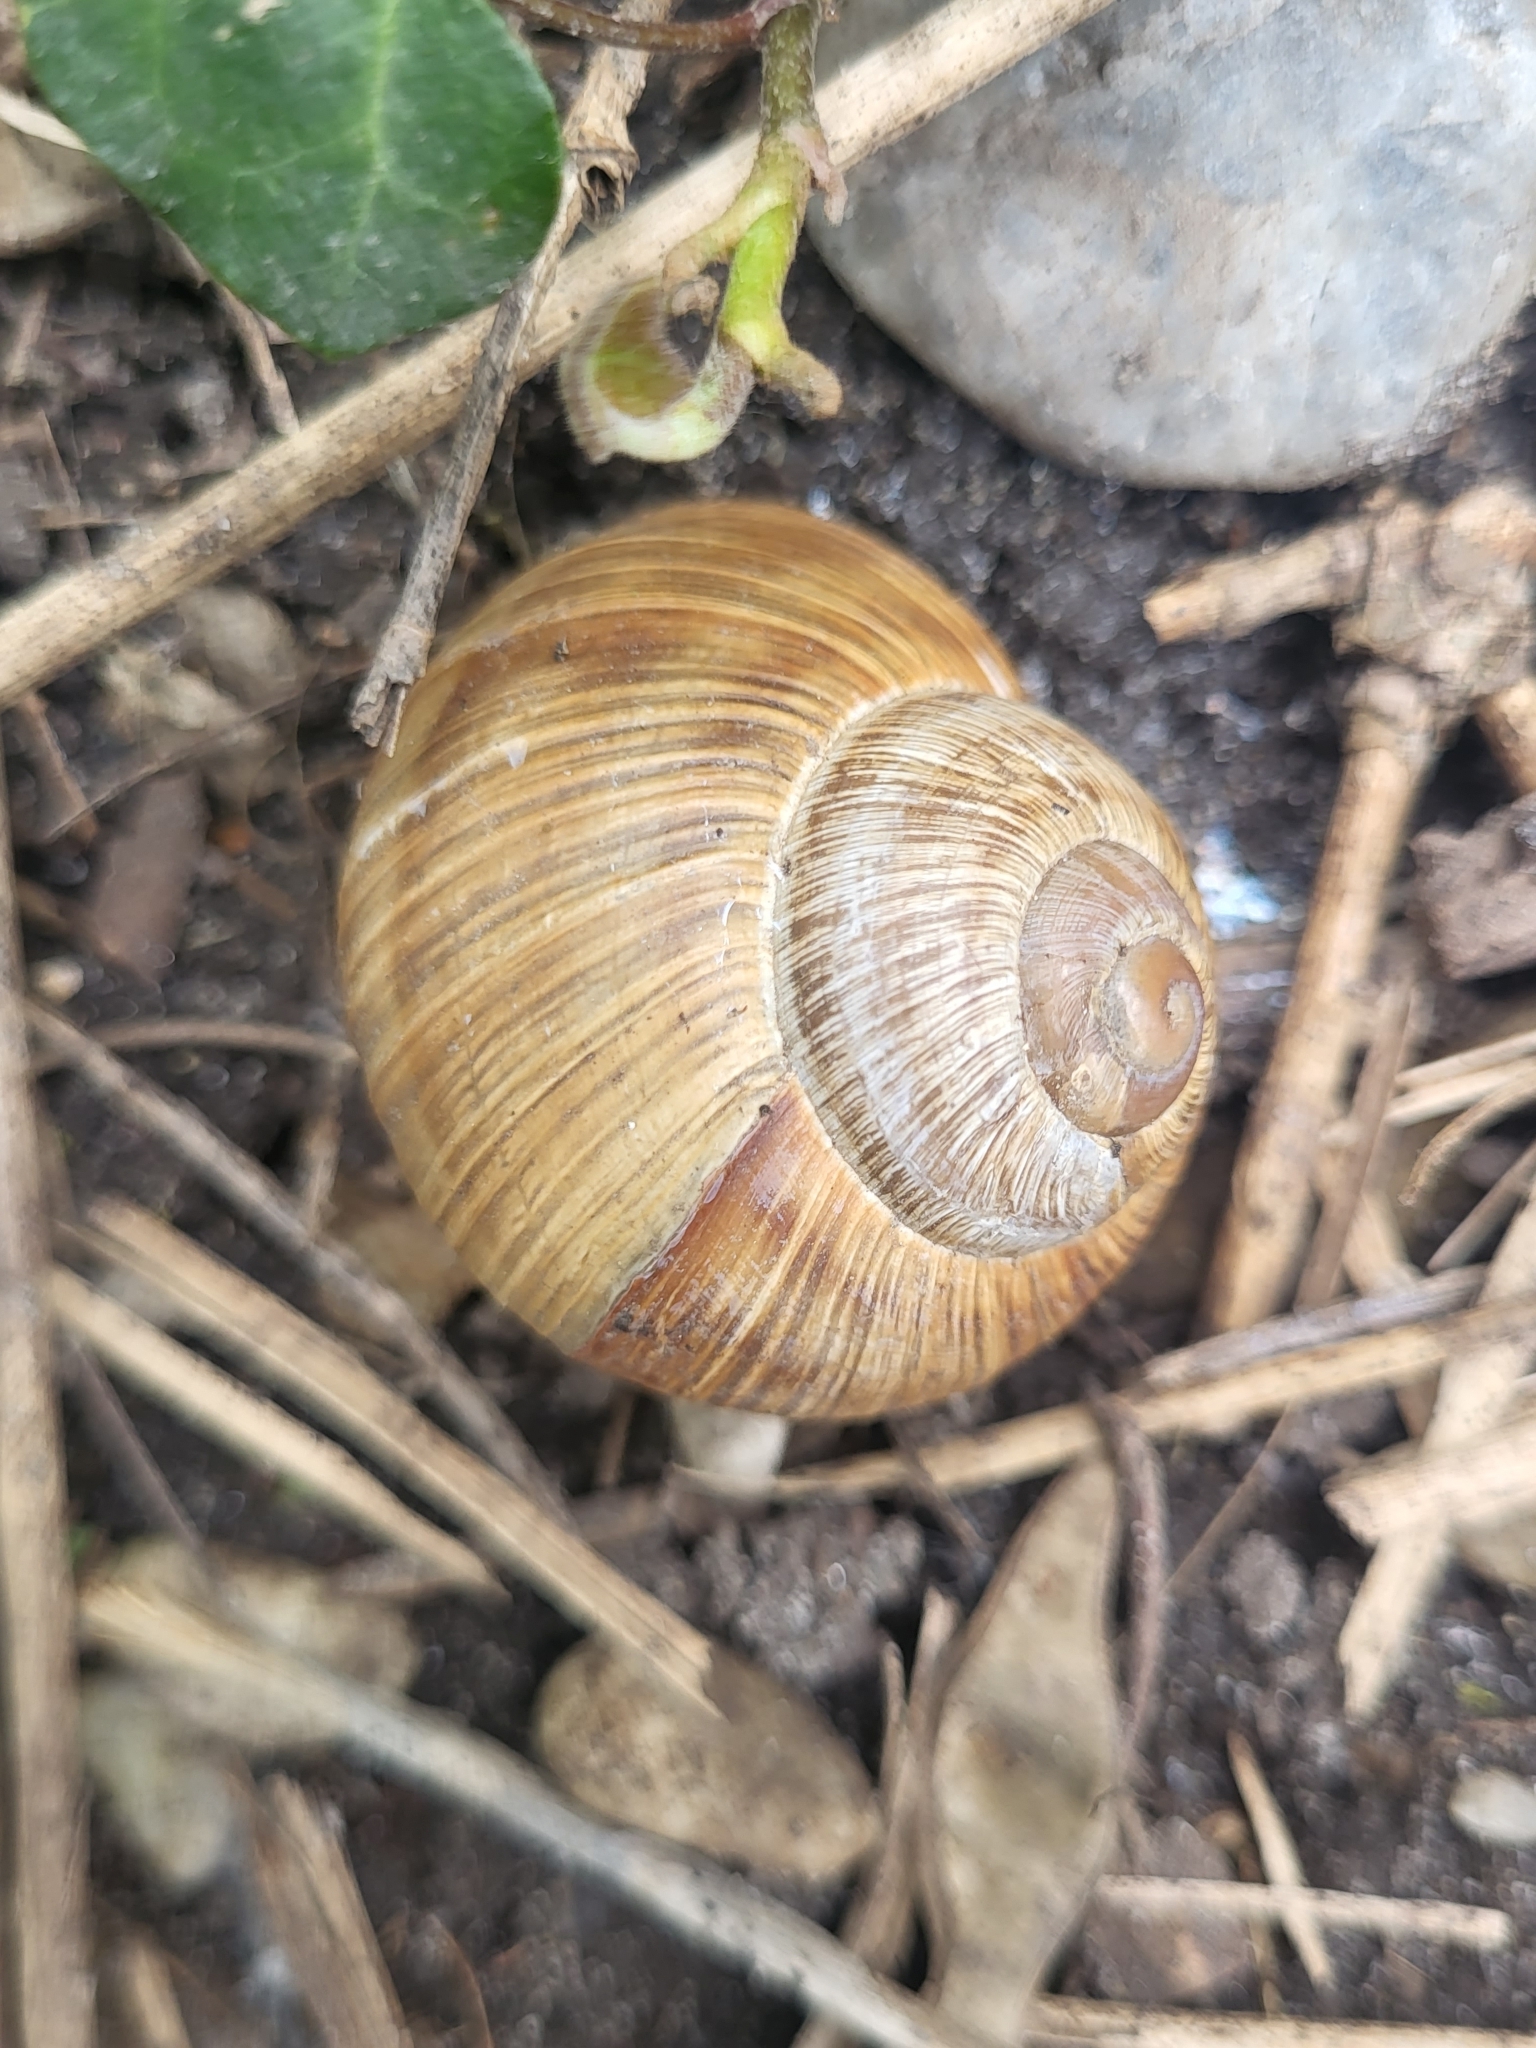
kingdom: Animalia
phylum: Mollusca
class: Gastropoda
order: Stylommatophora
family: Helicidae
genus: Helix
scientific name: Helix pomatia
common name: Roman snail
